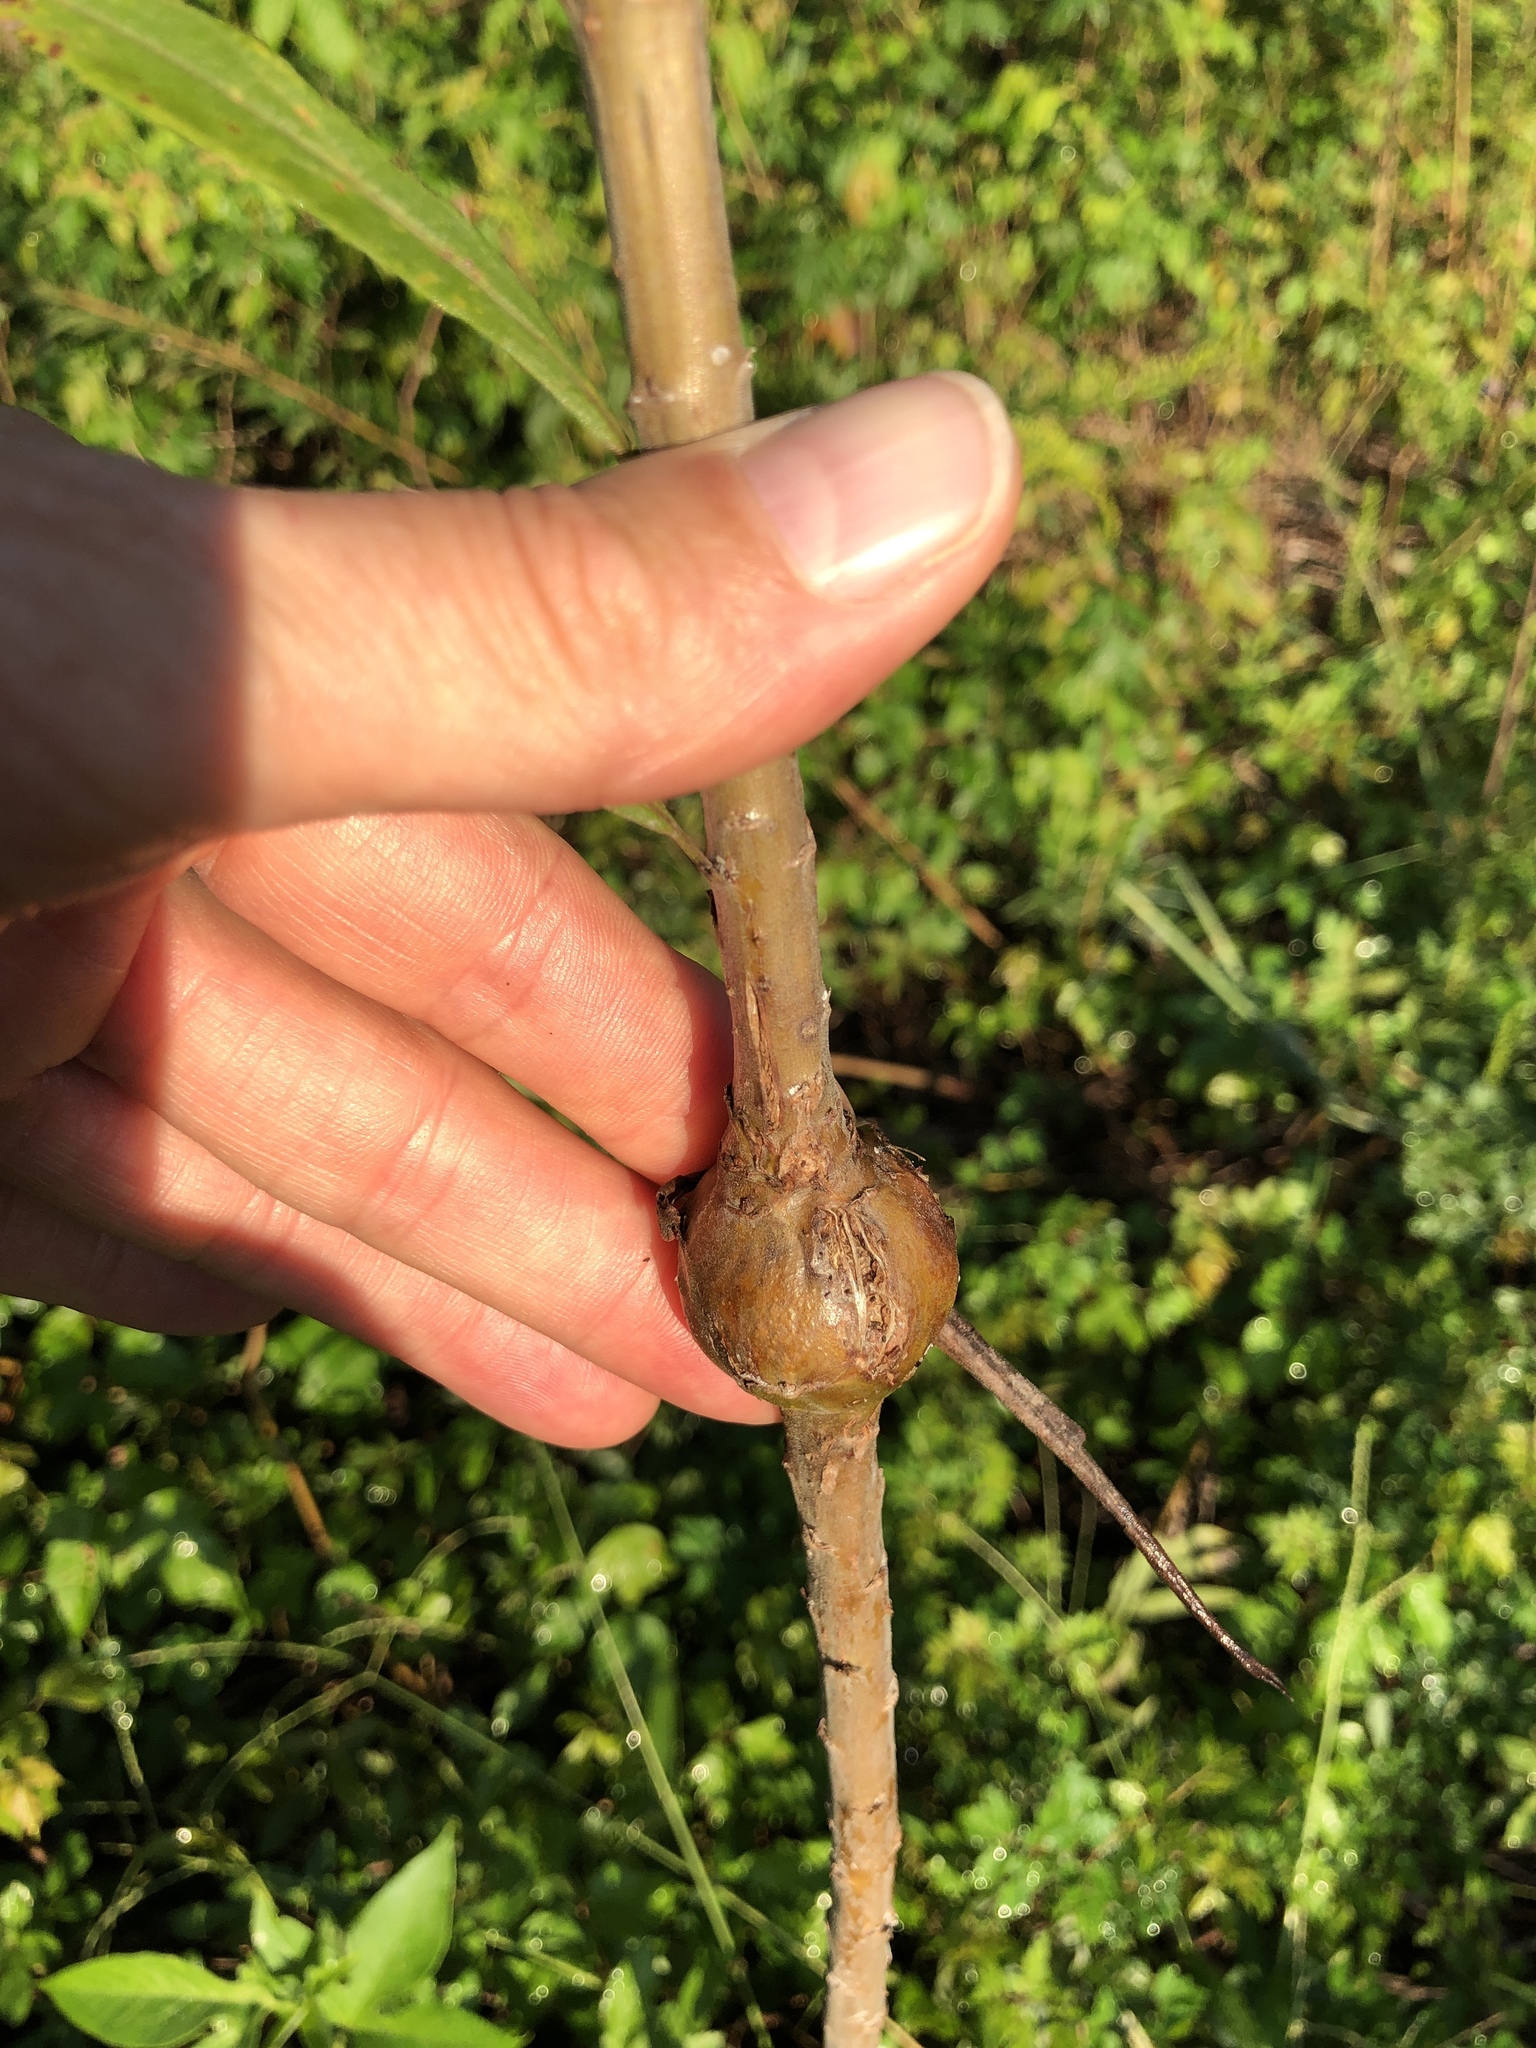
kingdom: Animalia
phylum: Arthropoda
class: Insecta
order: Diptera
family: Tephritidae
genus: Eurosta
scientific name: Eurosta solidaginis
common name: Goldenrod gall fly
